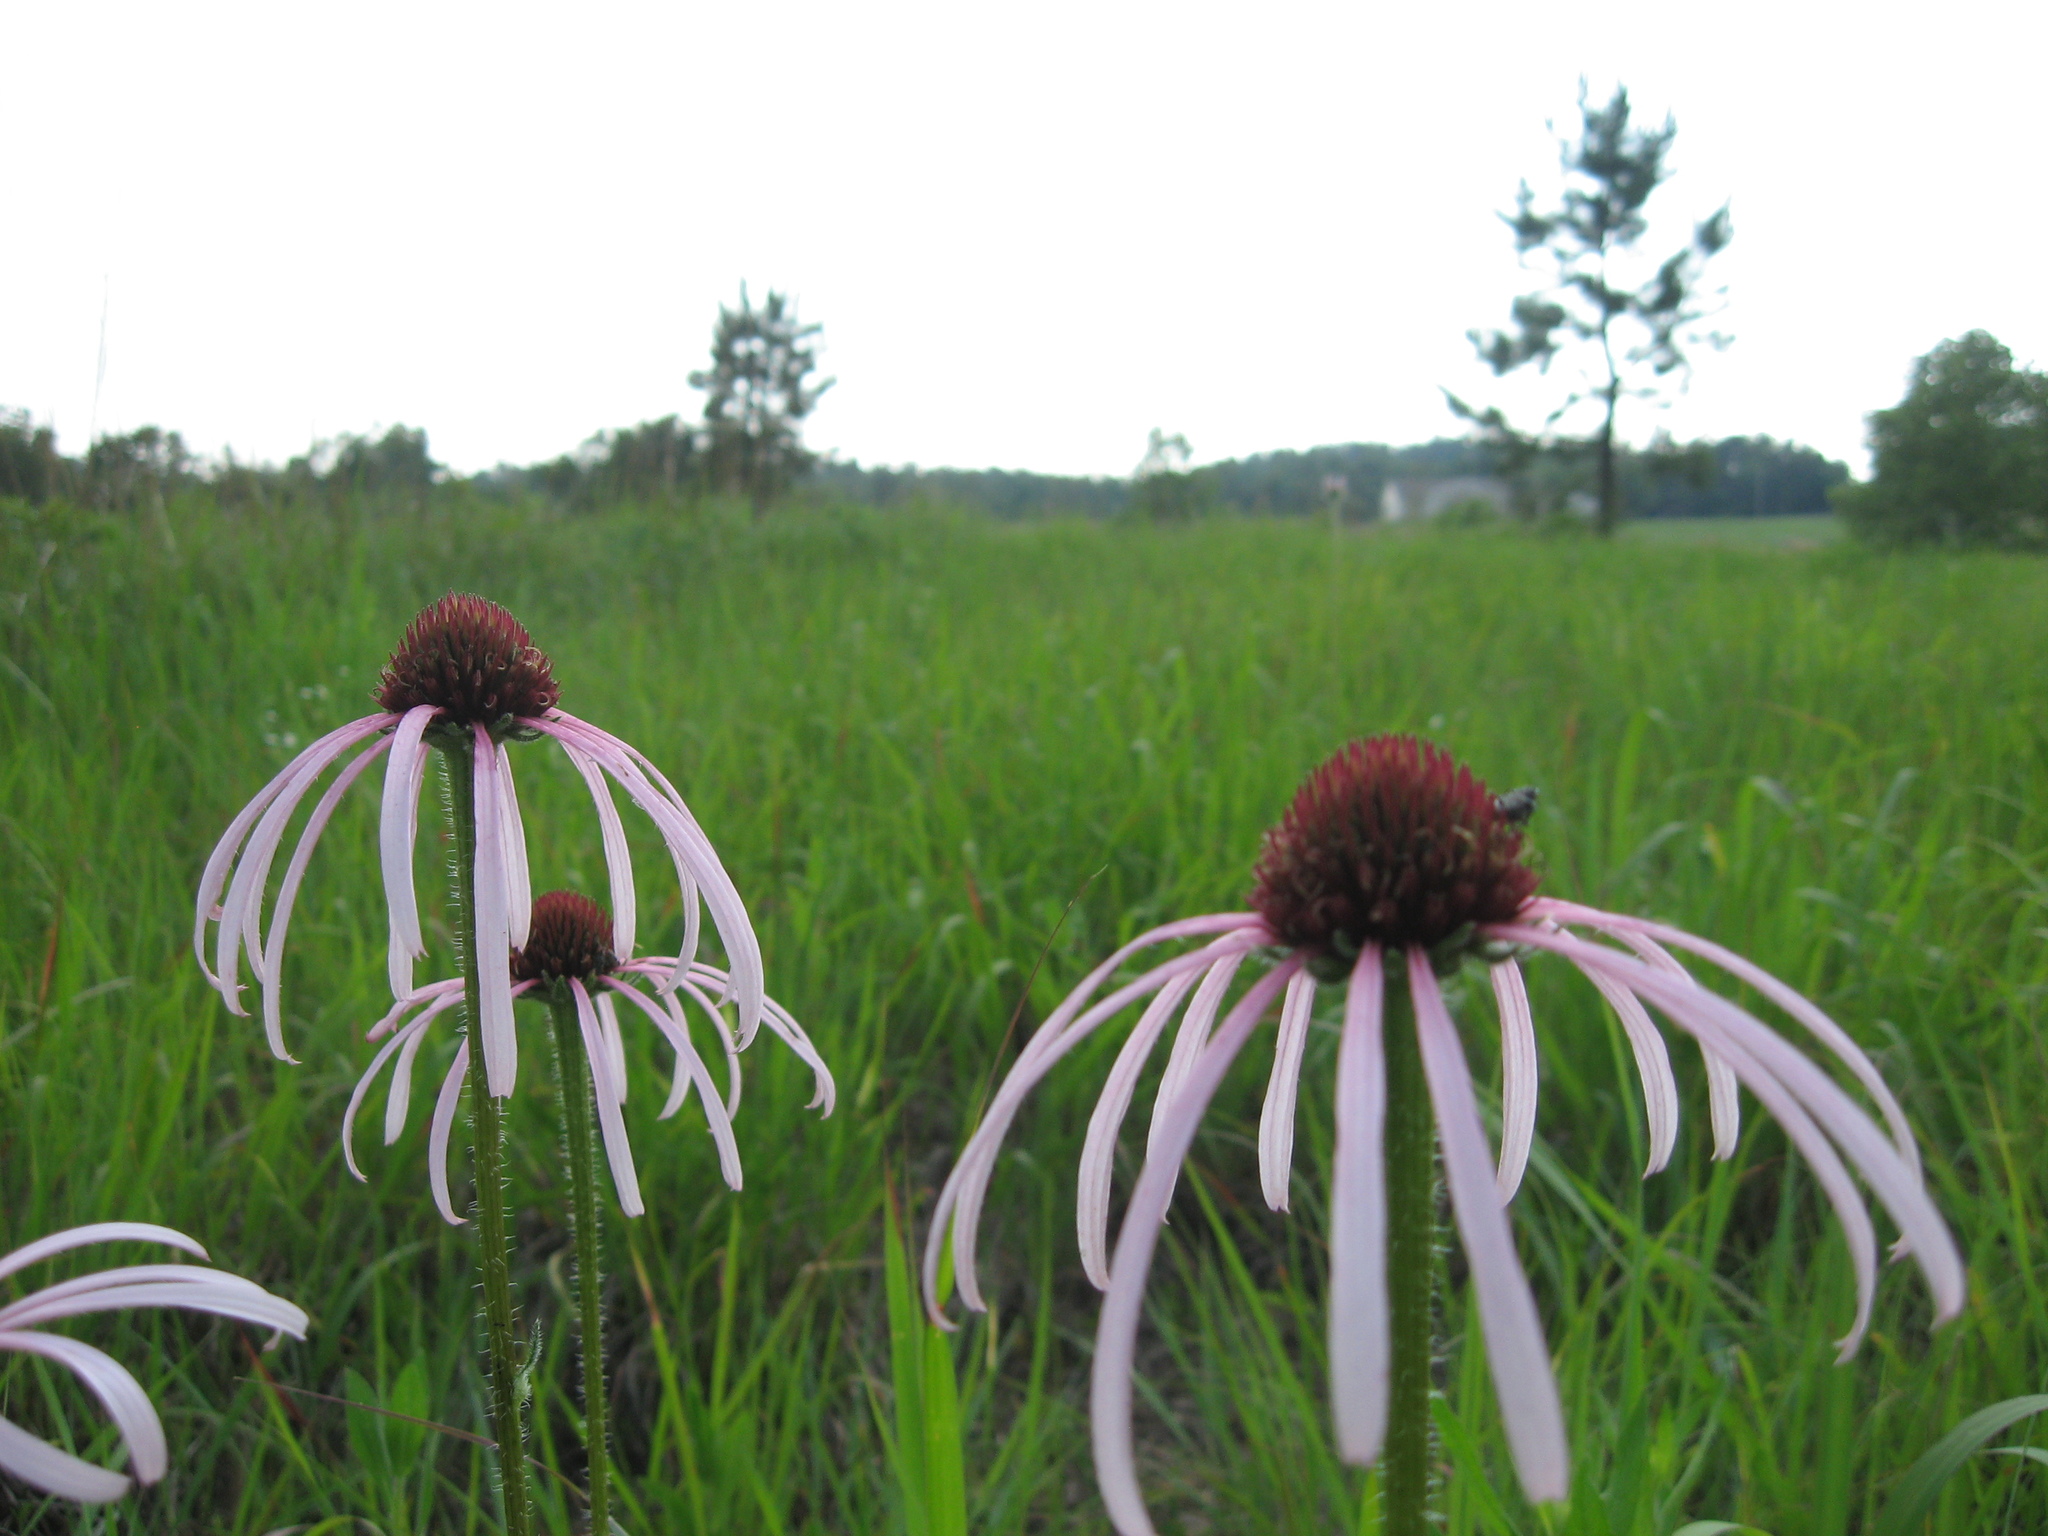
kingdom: Plantae
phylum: Tracheophyta
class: Magnoliopsida
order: Asterales
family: Asteraceae
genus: Echinacea
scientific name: Echinacea simulata
